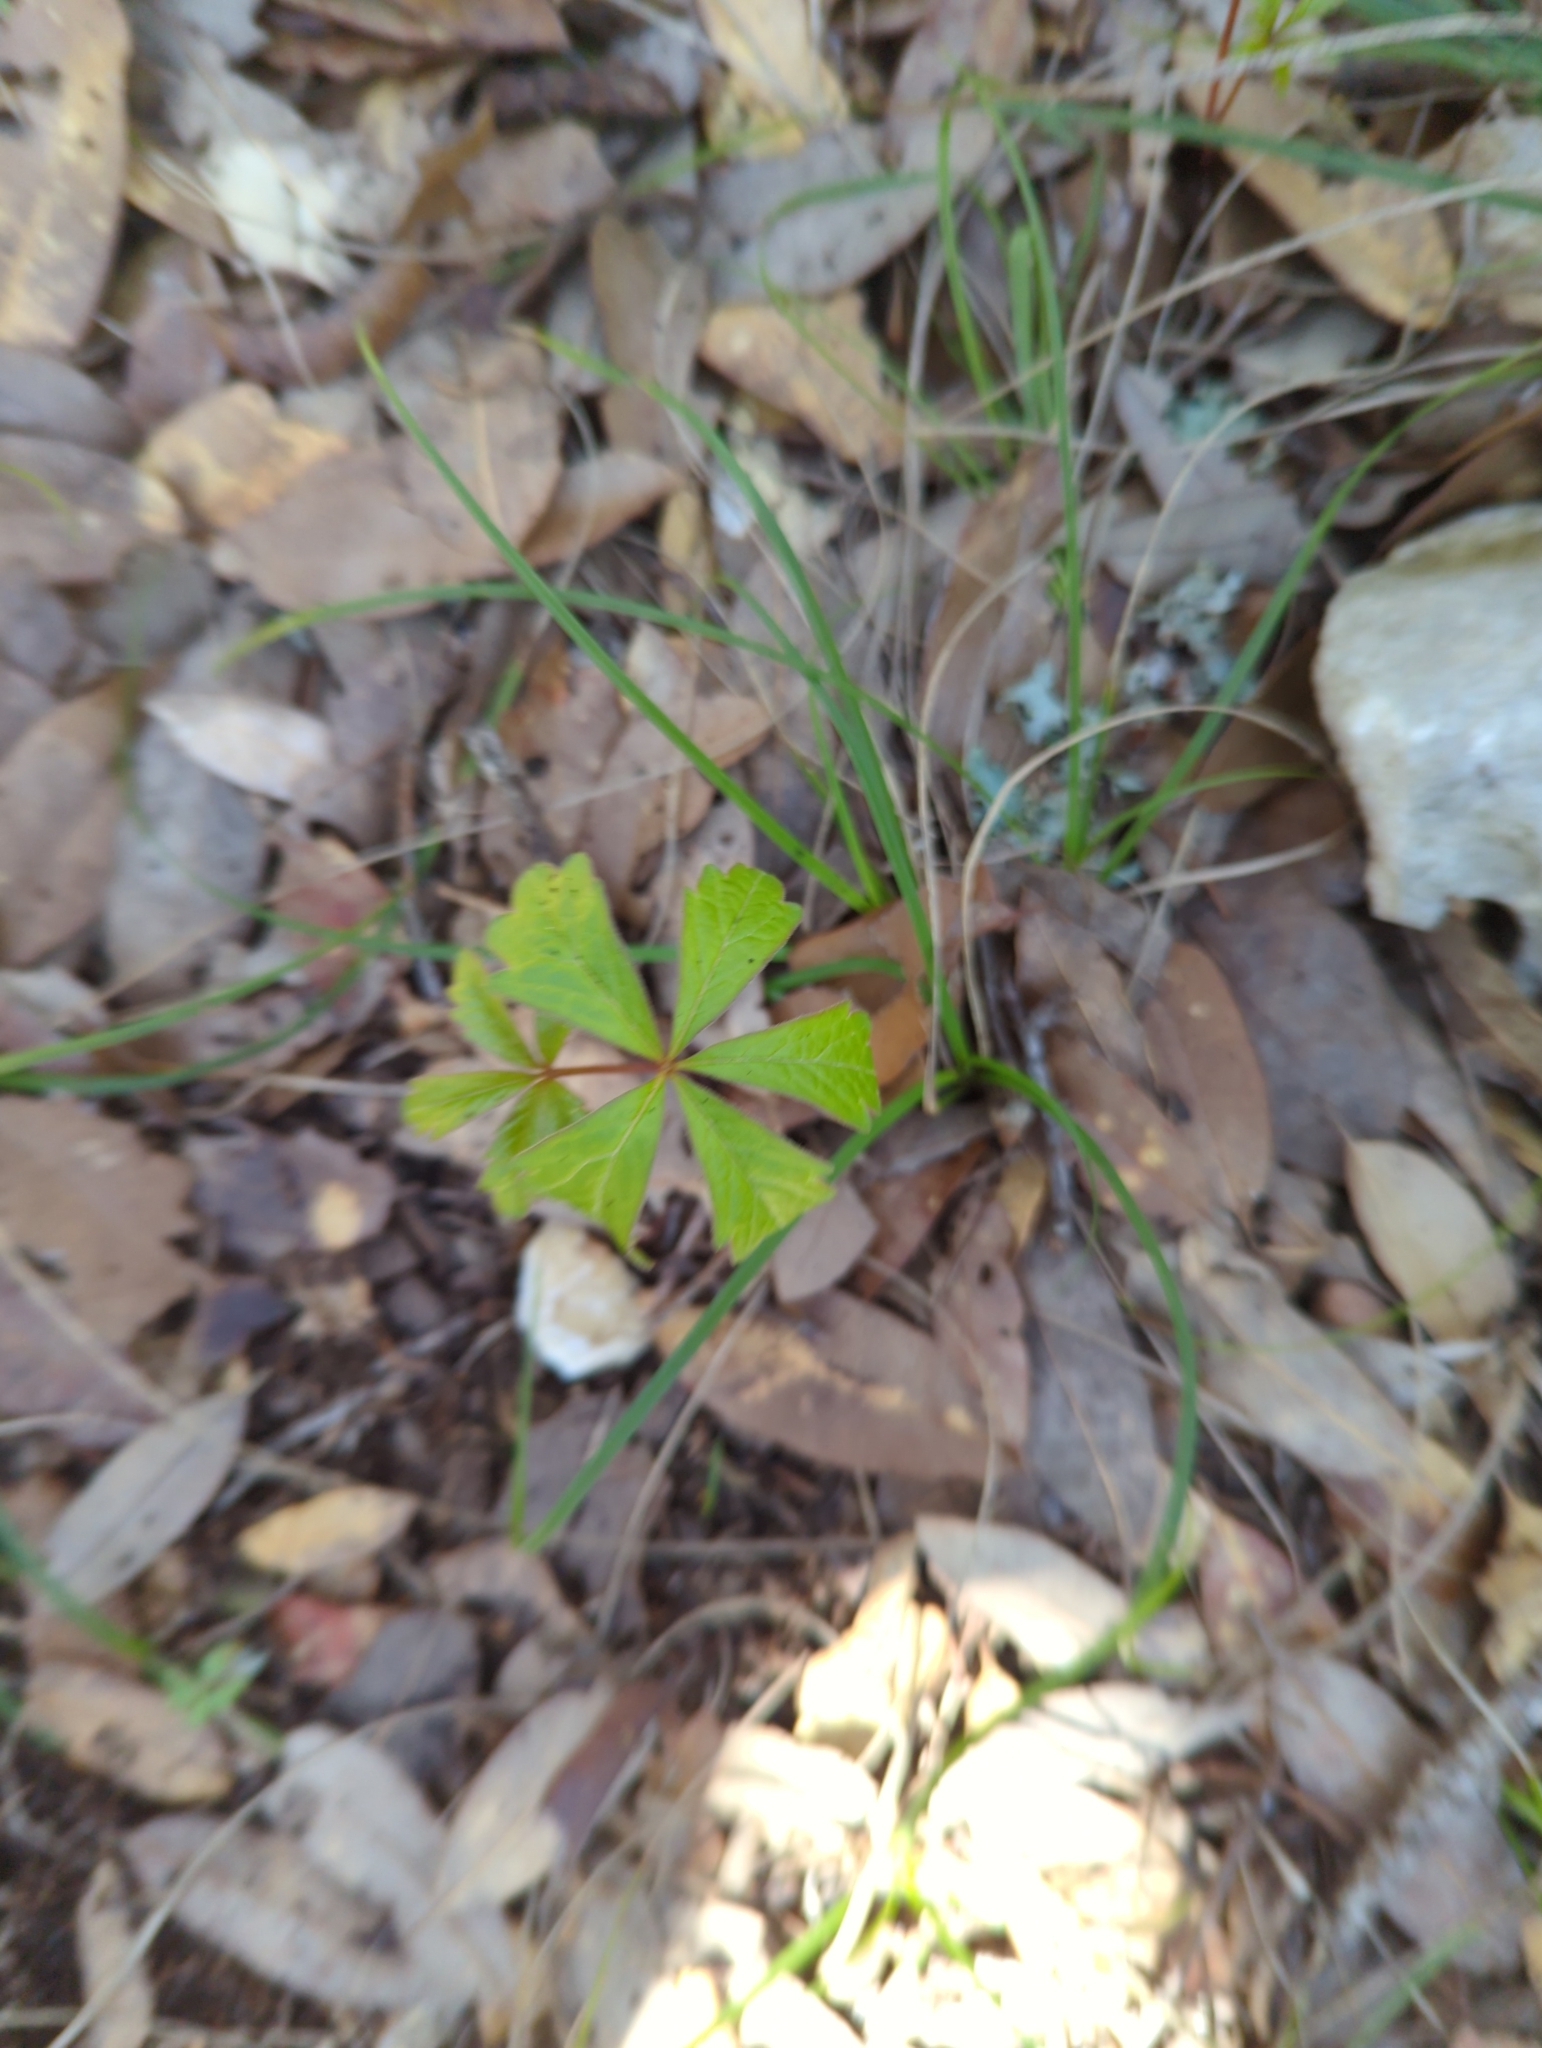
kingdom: Plantae
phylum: Tracheophyta
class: Magnoliopsida
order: Vitales
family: Vitaceae
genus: Parthenocissus
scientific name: Parthenocissus quinquefolia
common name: Virginia-creeper
